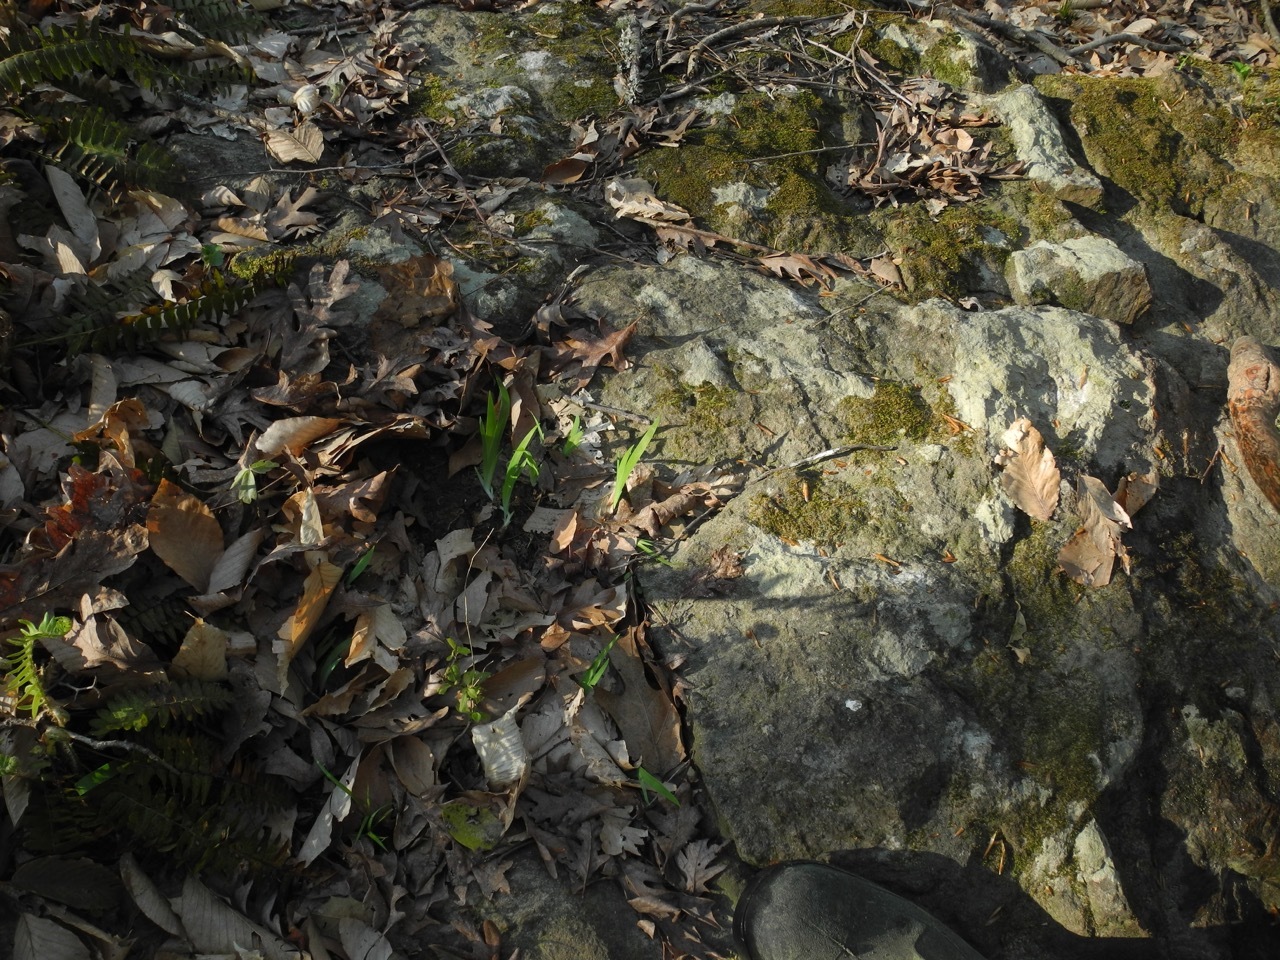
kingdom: Plantae
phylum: Tracheophyta
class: Liliopsida
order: Asparagales
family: Iridaceae
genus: Iris
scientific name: Iris cristata
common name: Crested iris
